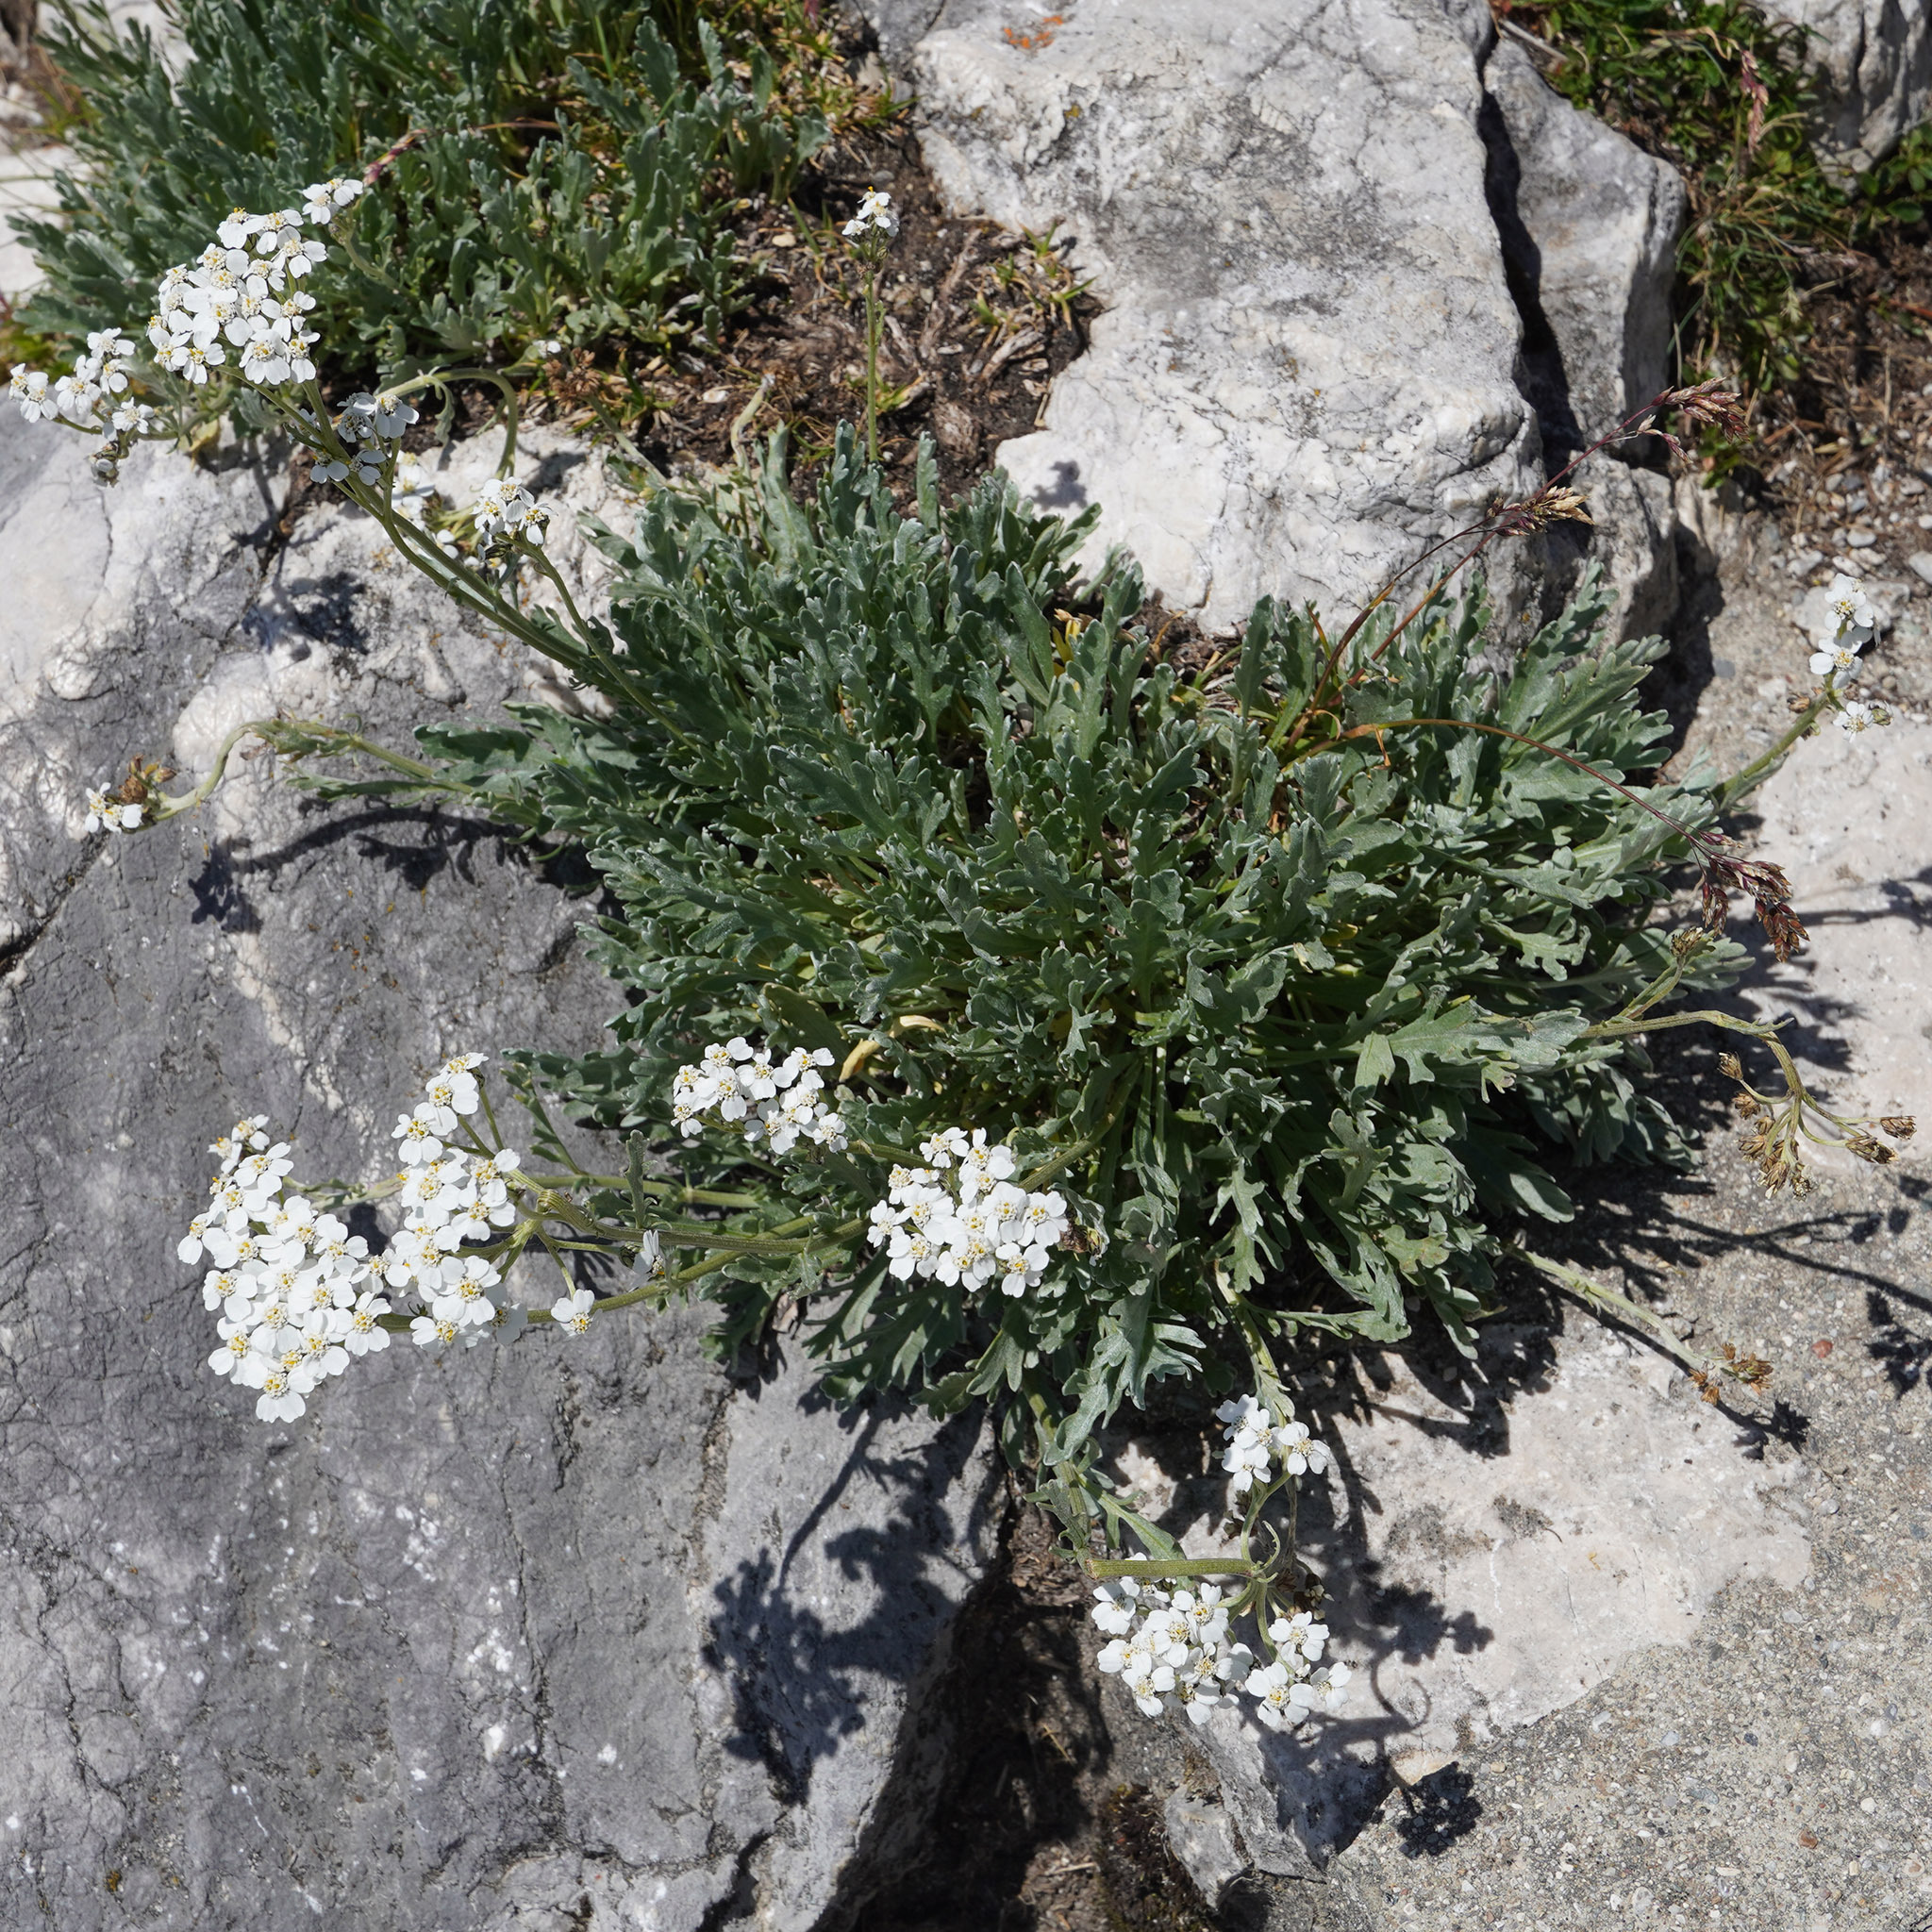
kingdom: Plantae
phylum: Tracheophyta
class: Magnoliopsida
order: Asterales
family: Asteraceae
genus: Achillea
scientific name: Achillea clavennae
